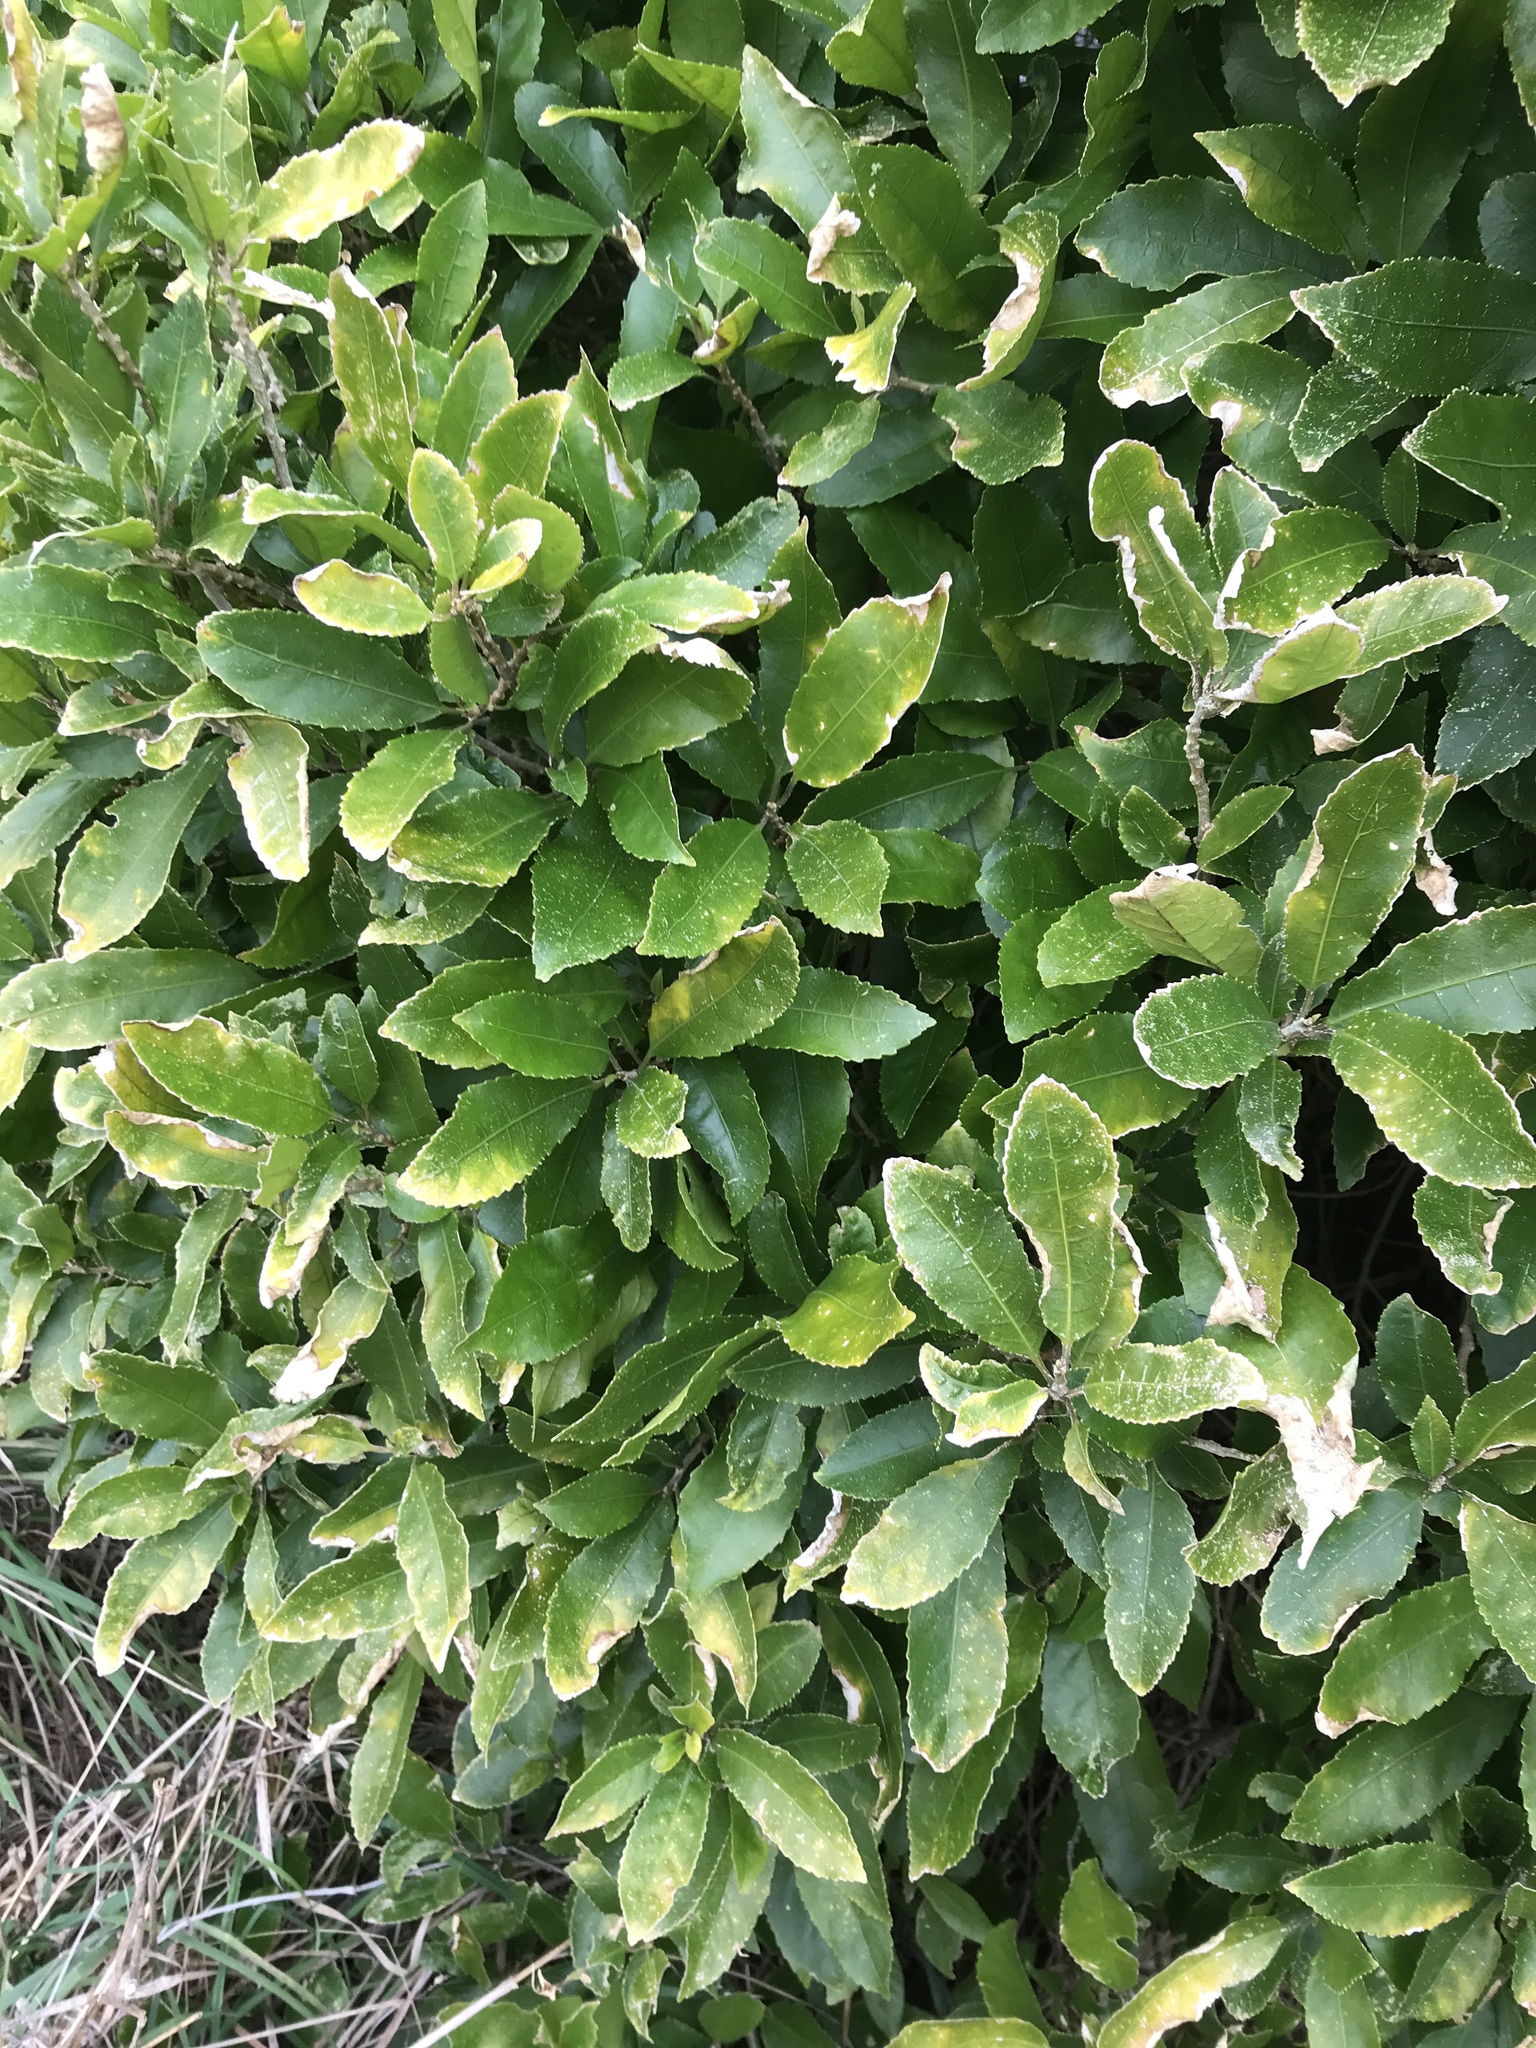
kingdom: Plantae
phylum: Tracheophyta
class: Magnoliopsida
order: Malpighiales
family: Violaceae
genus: Melicytus
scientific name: Melicytus ramiflorus
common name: Mahoe
